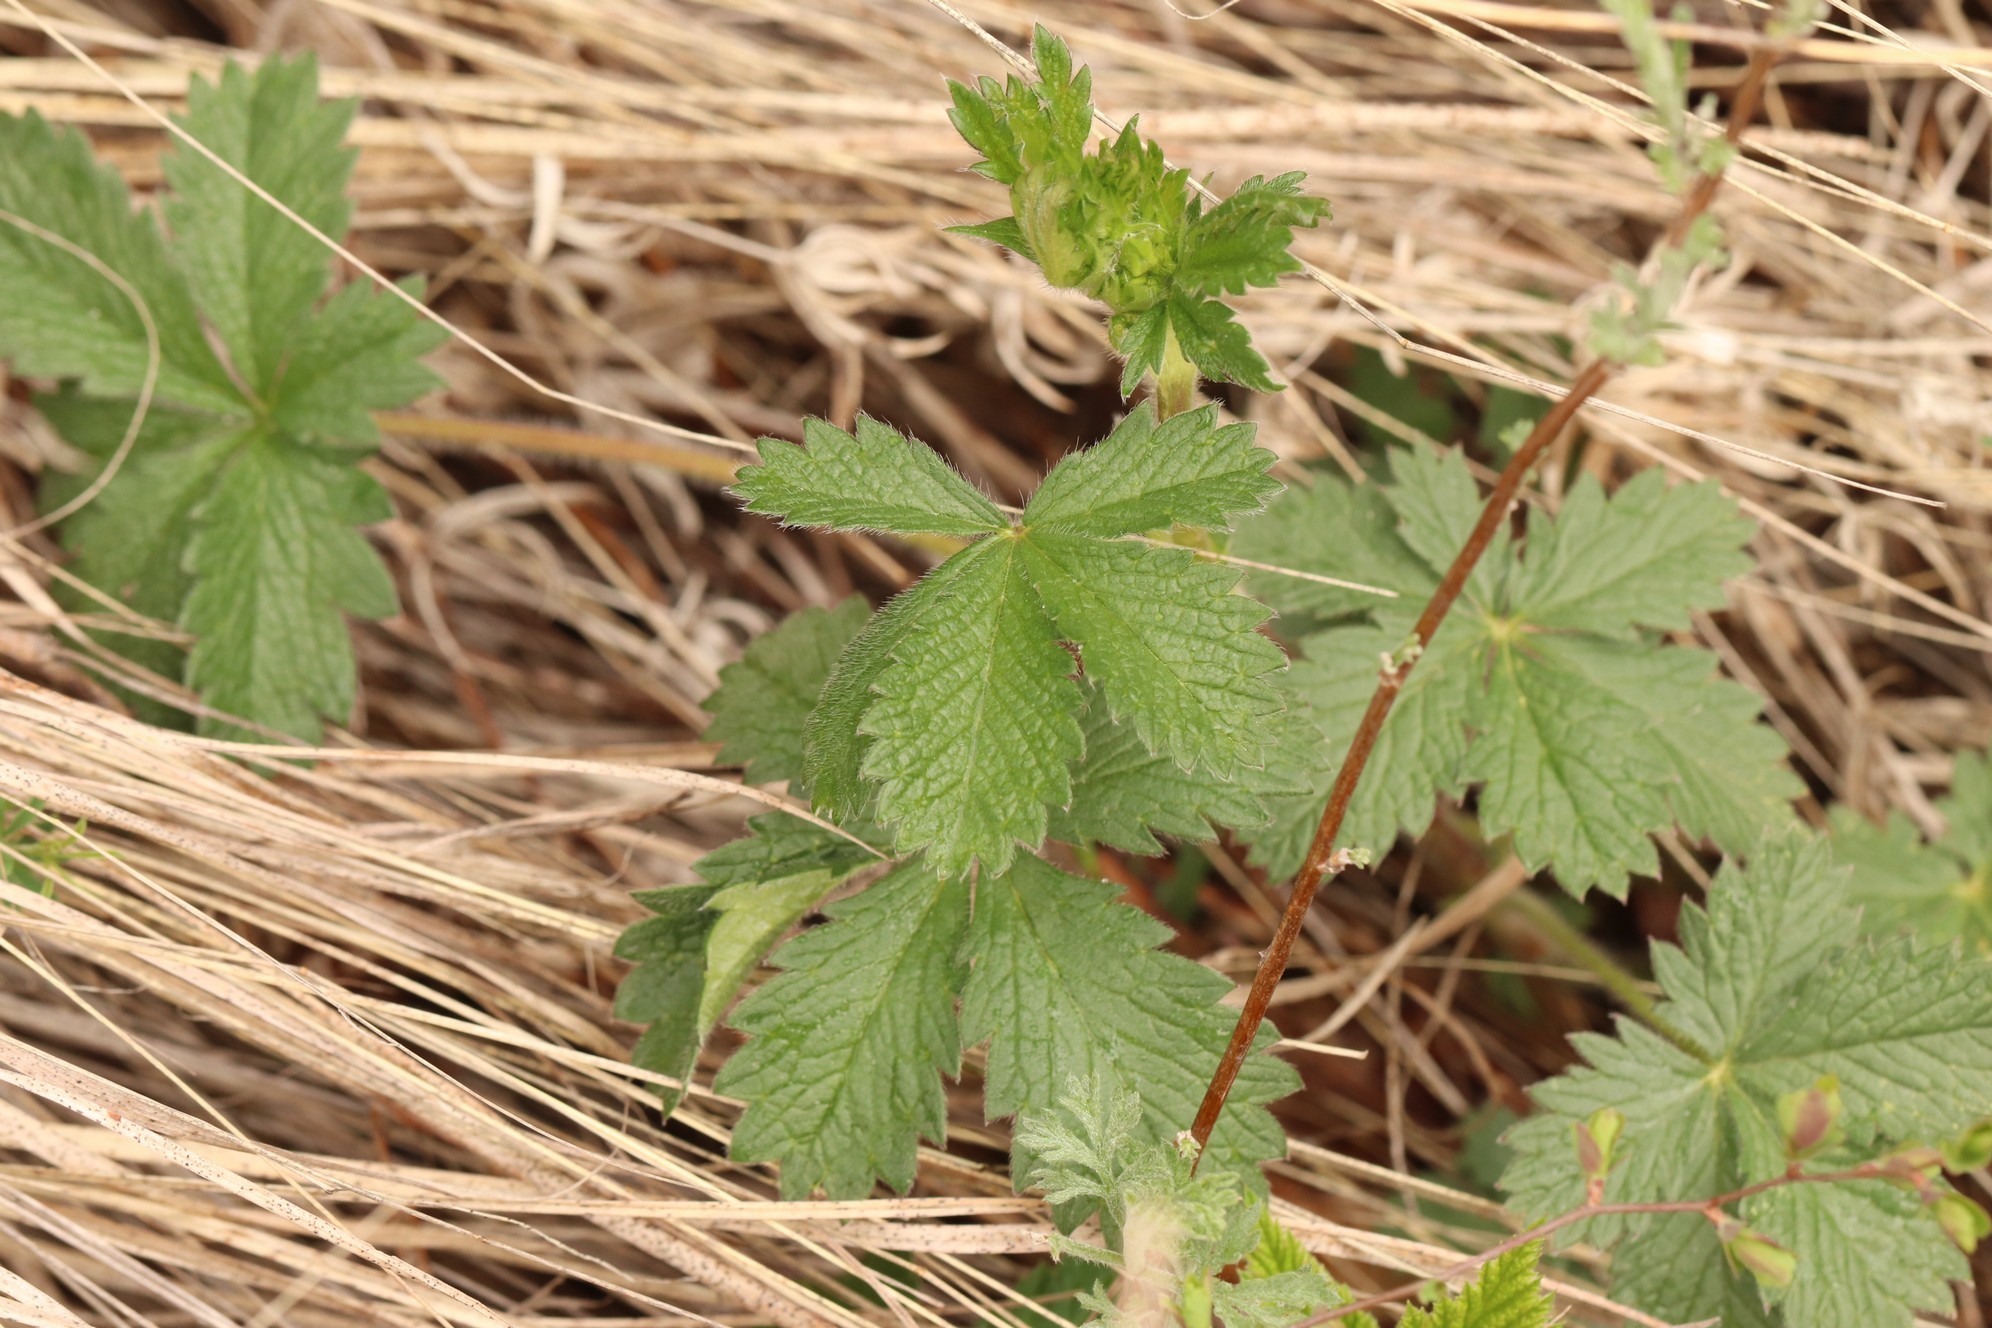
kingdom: Plantae
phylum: Tracheophyta
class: Magnoliopsida
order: Rosales
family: Rosaceae
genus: Potentilla
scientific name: Potentilla chrysantha
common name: Thuringian cinquefoil
